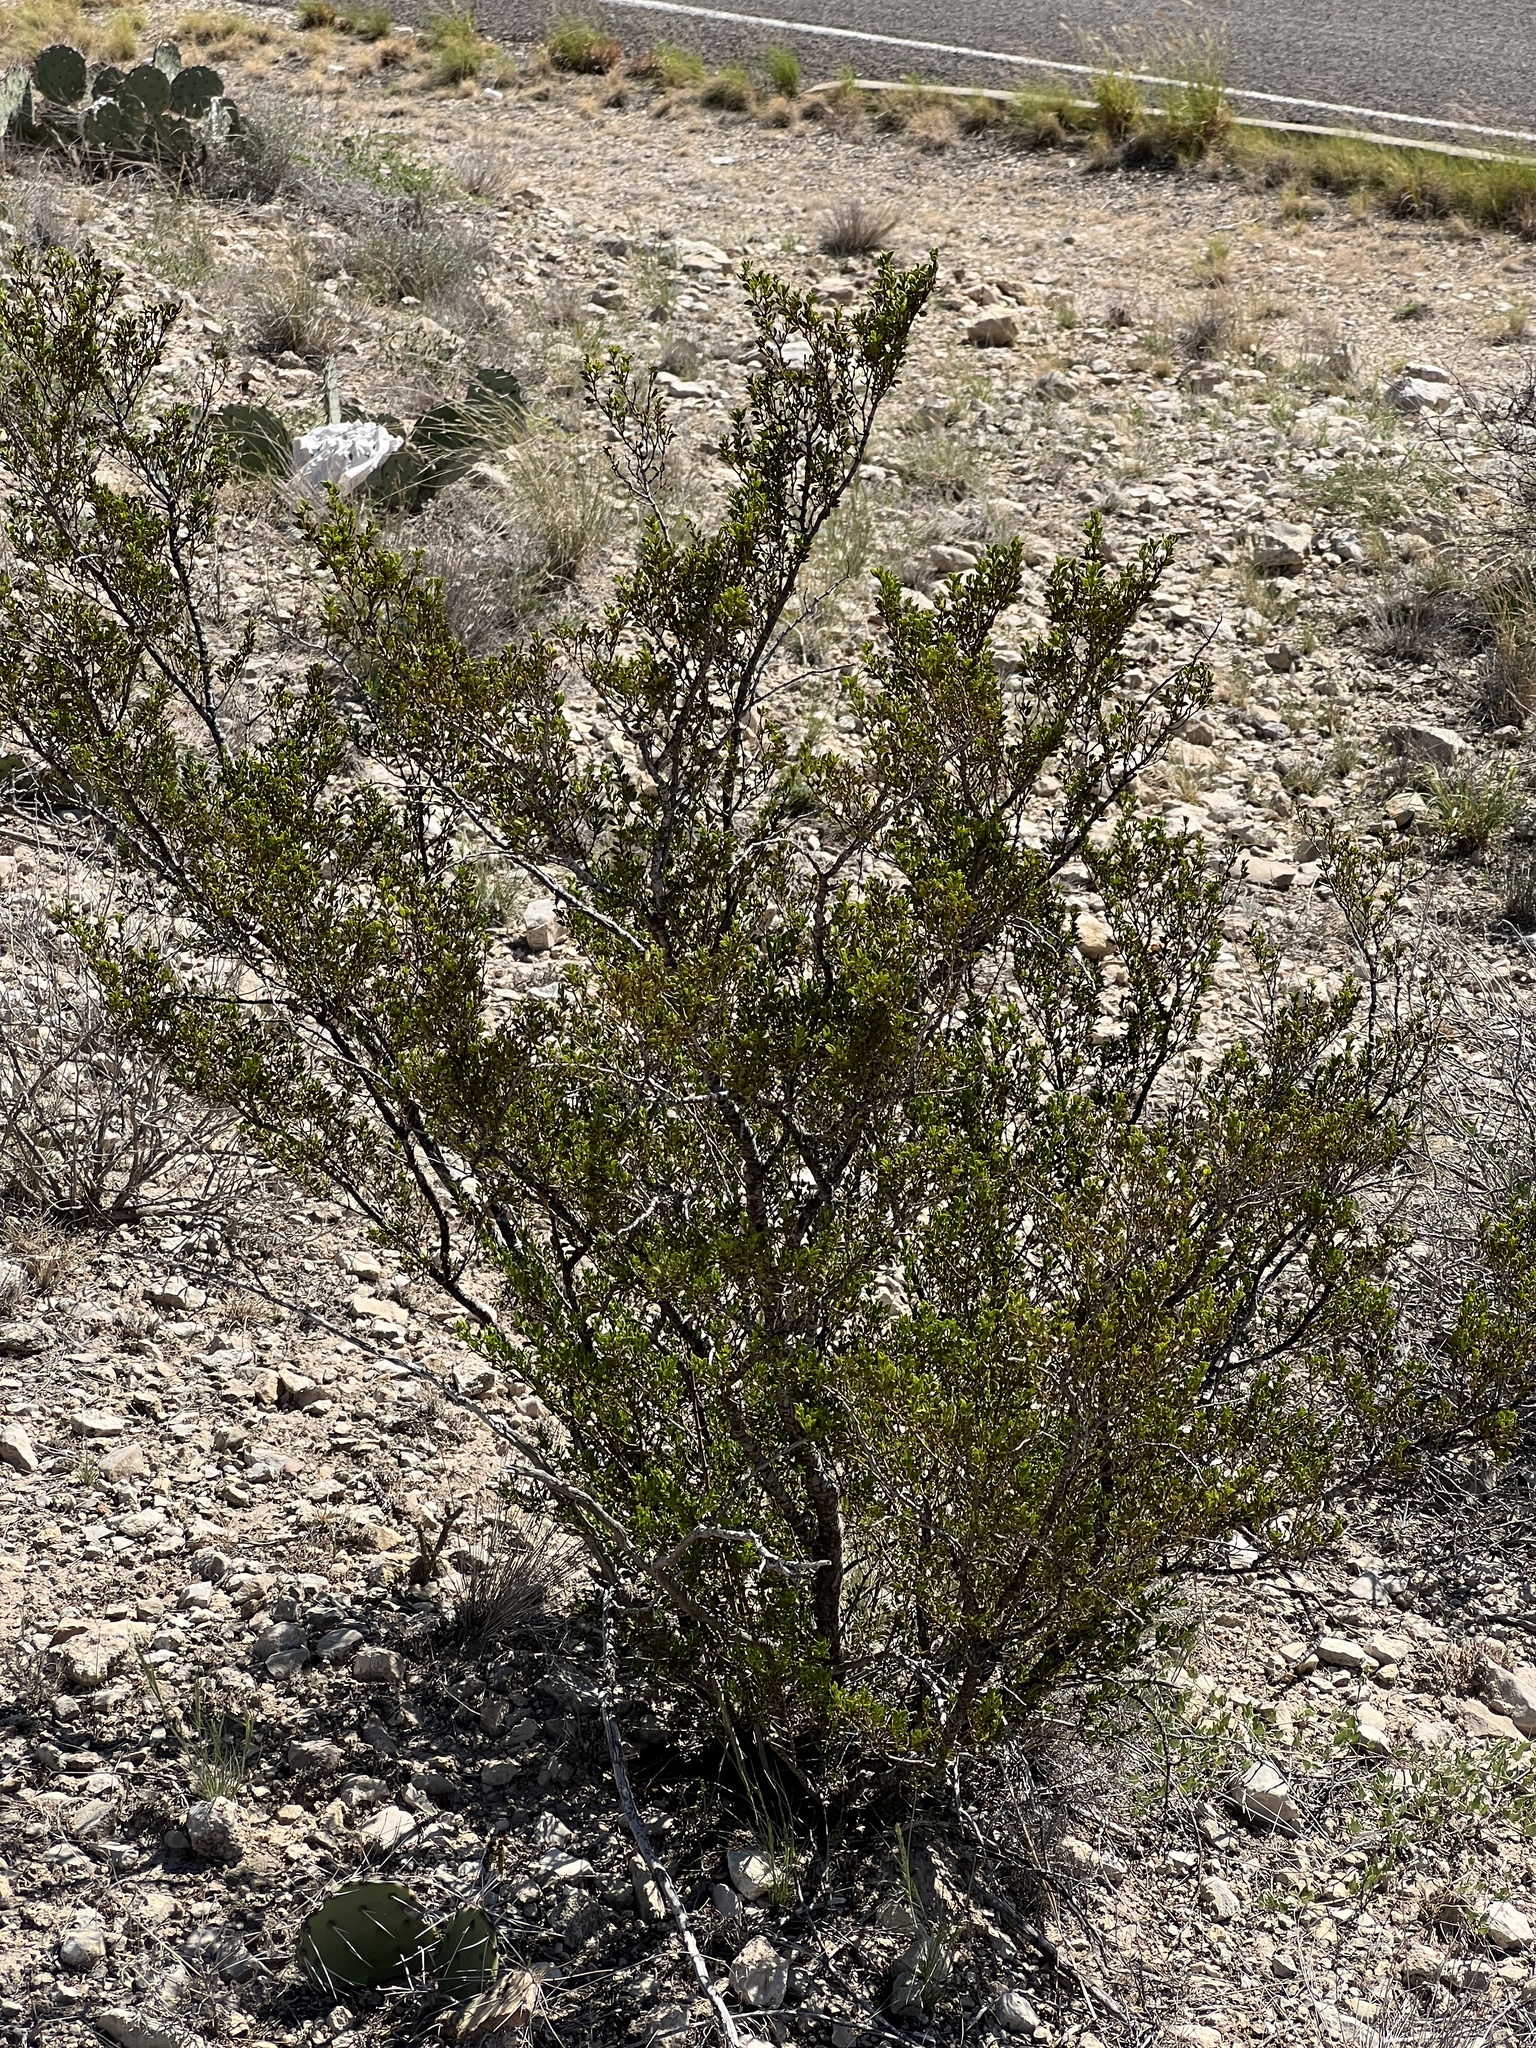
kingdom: Plantae
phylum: Tracheophyta
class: Magnoliopsida
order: Zygophyllales
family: Zygophyllaceae
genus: Larrea
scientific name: Larrea tridentata
